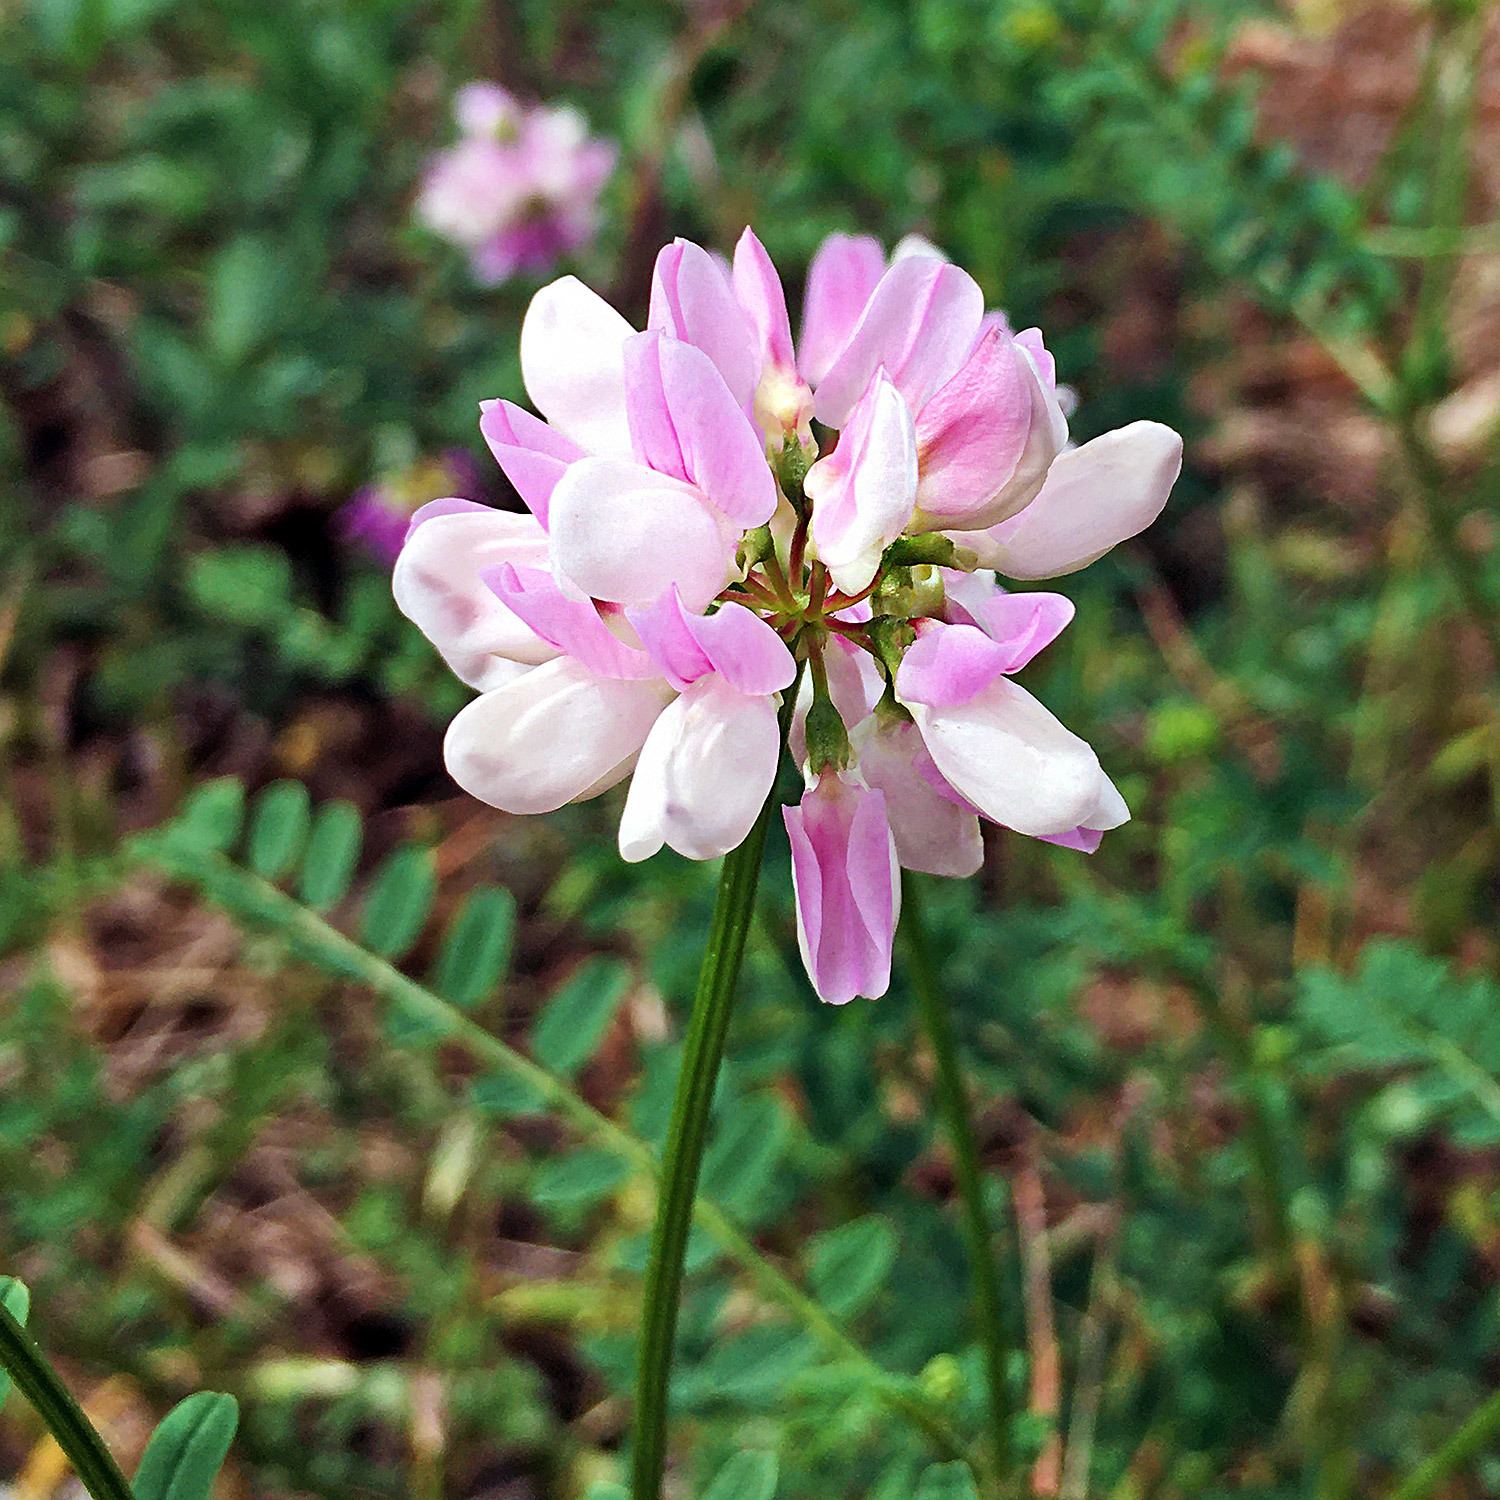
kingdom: Plantae
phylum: Tracheophyta
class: Magnoliopsida
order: Fabales
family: Fabaceae
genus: Coronilla
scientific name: Coronilla varia
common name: Crownvetch
